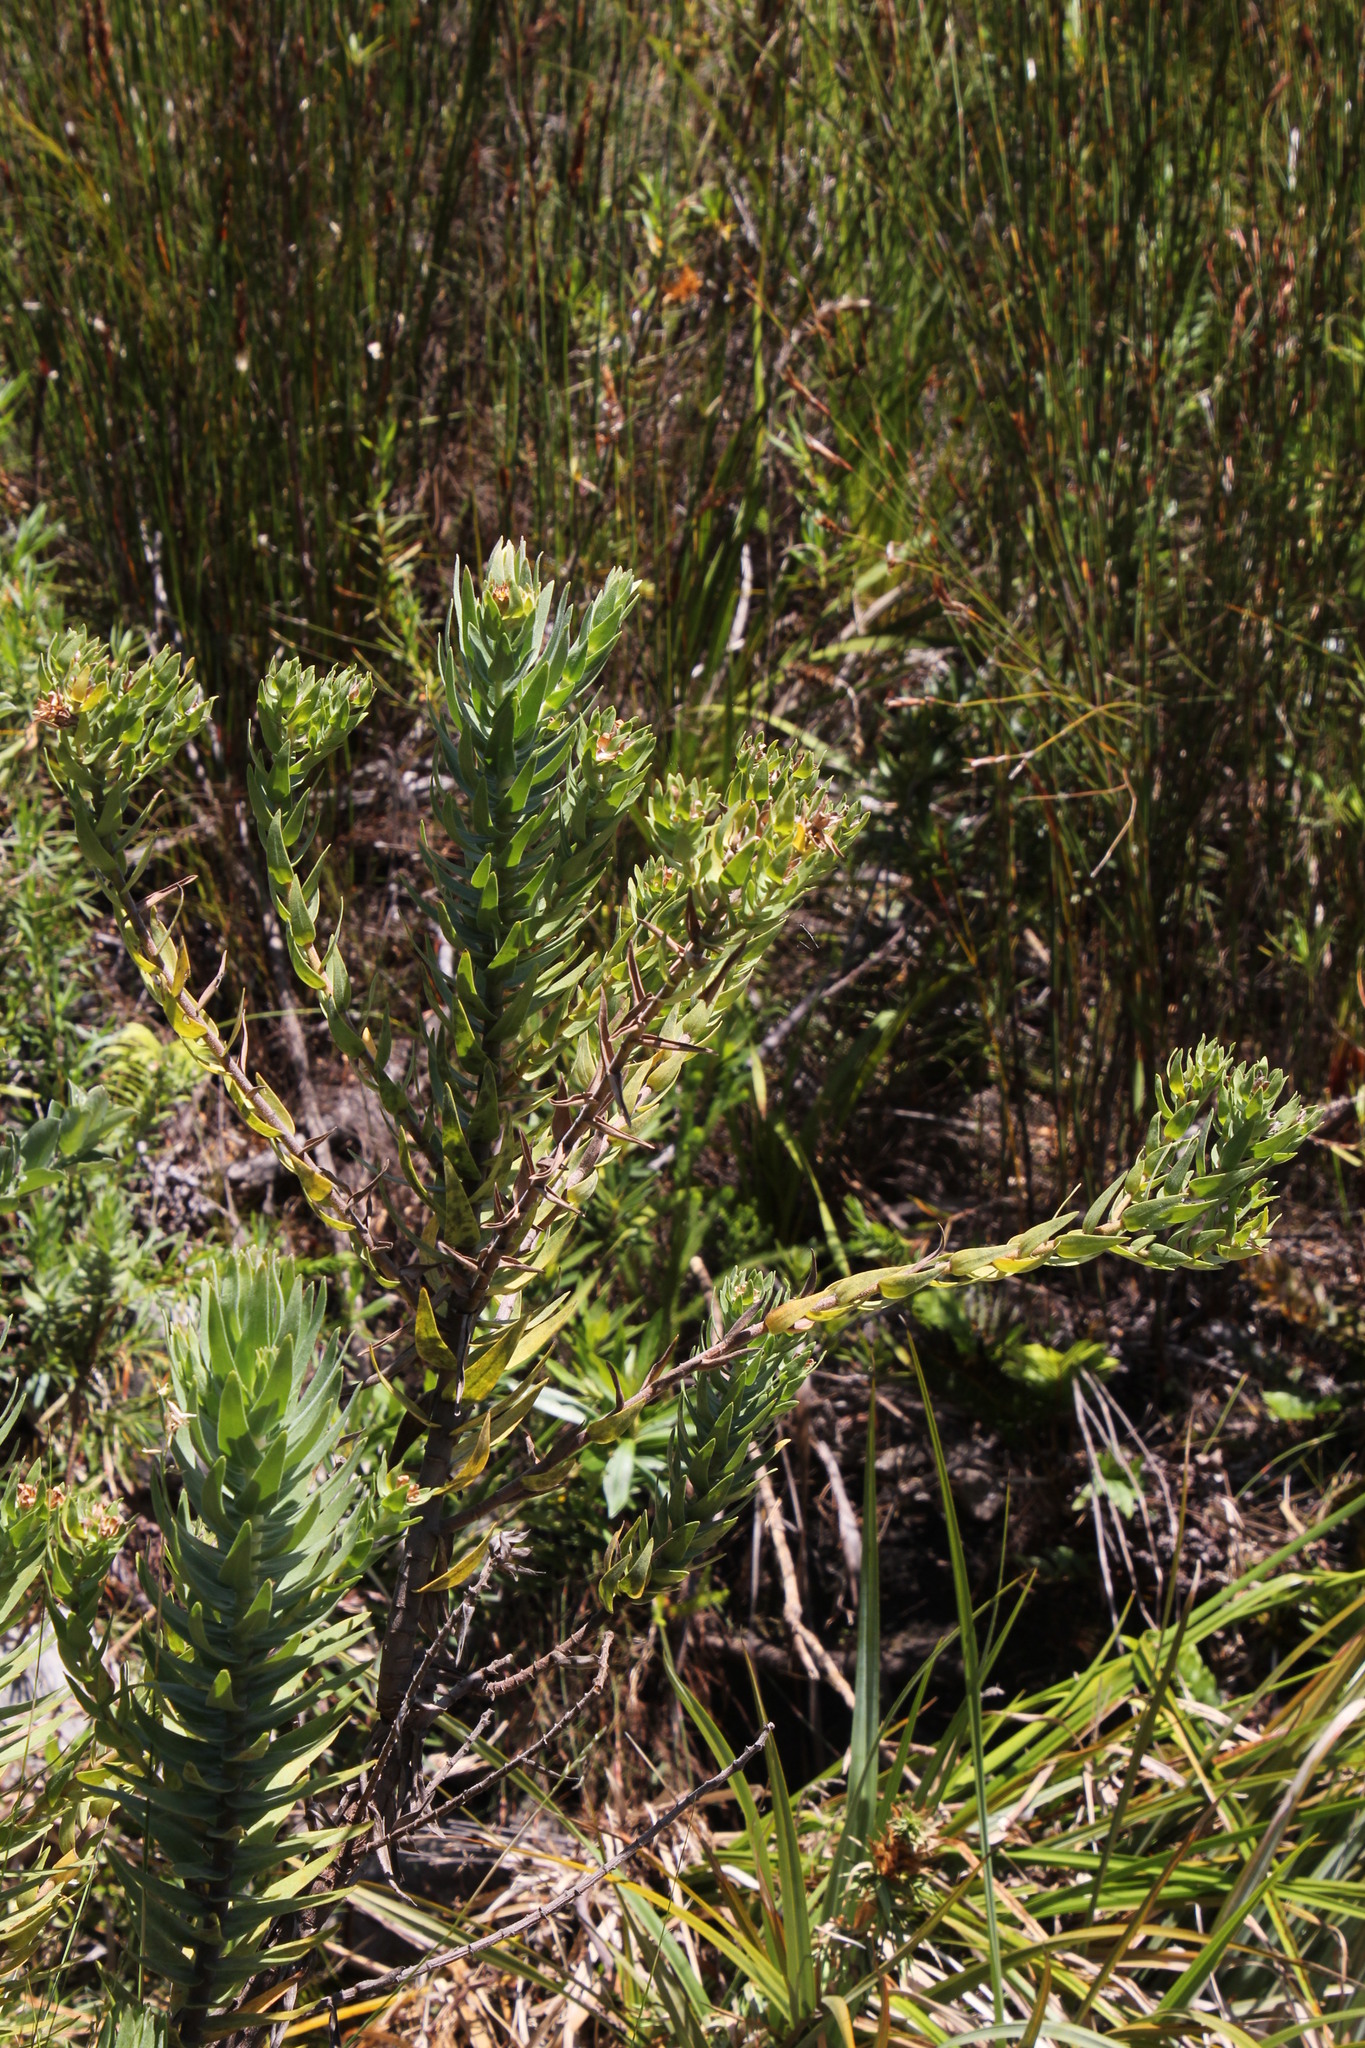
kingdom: Plantae
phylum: Tracheophyta
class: Magnoliopsida
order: Asterales
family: Asteraceae
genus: Osmitopsis
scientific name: Osmitopsis asteriscoides
